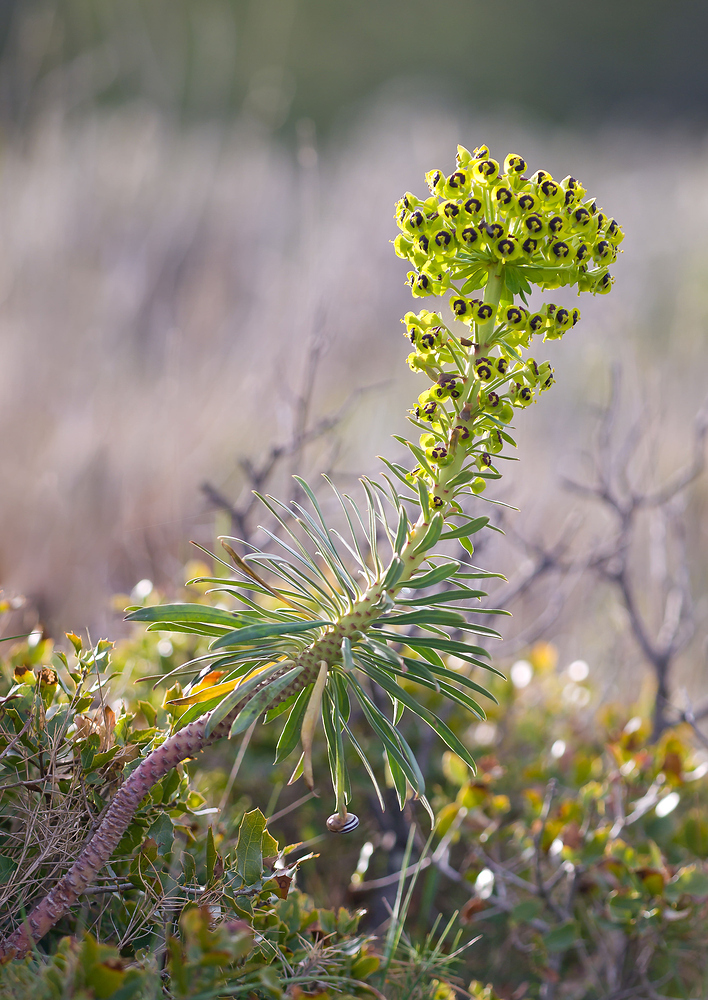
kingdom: Plantae
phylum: Tracheophyta
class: Magnoliopsida
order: Malpighiales
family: Euphorbiaceae
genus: Euphorbia
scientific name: Euphorbia characias
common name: Mediterranean spurge
